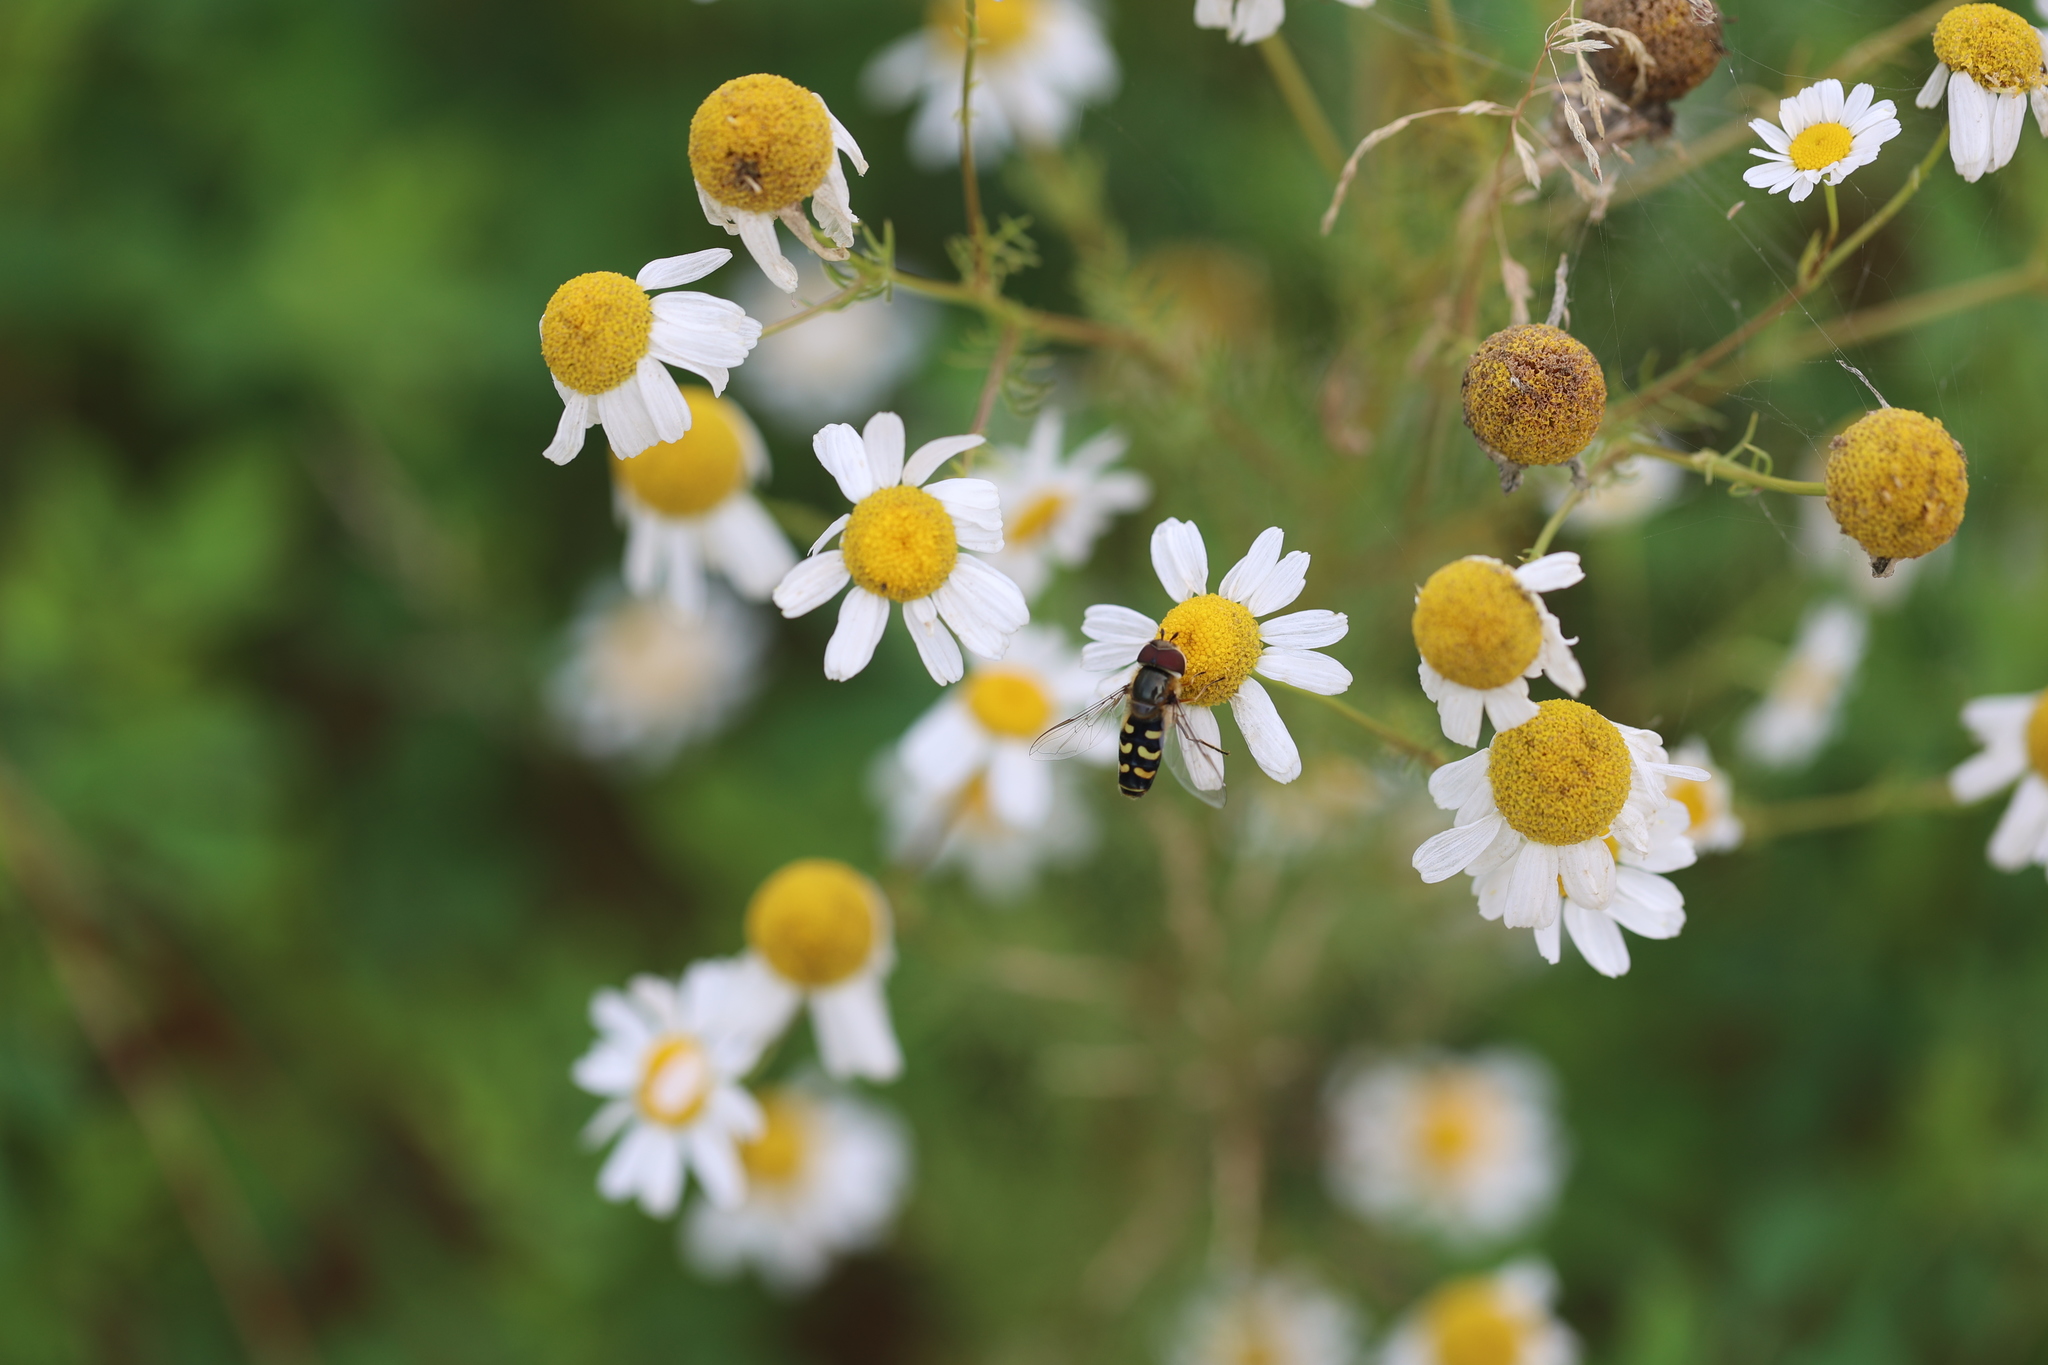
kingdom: Plantae
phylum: Tracheophyta
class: Magnoliopsida
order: Asterales
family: Asteraceae
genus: Matricaria
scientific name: Matricaria chamomilla
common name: Scented mayweed
